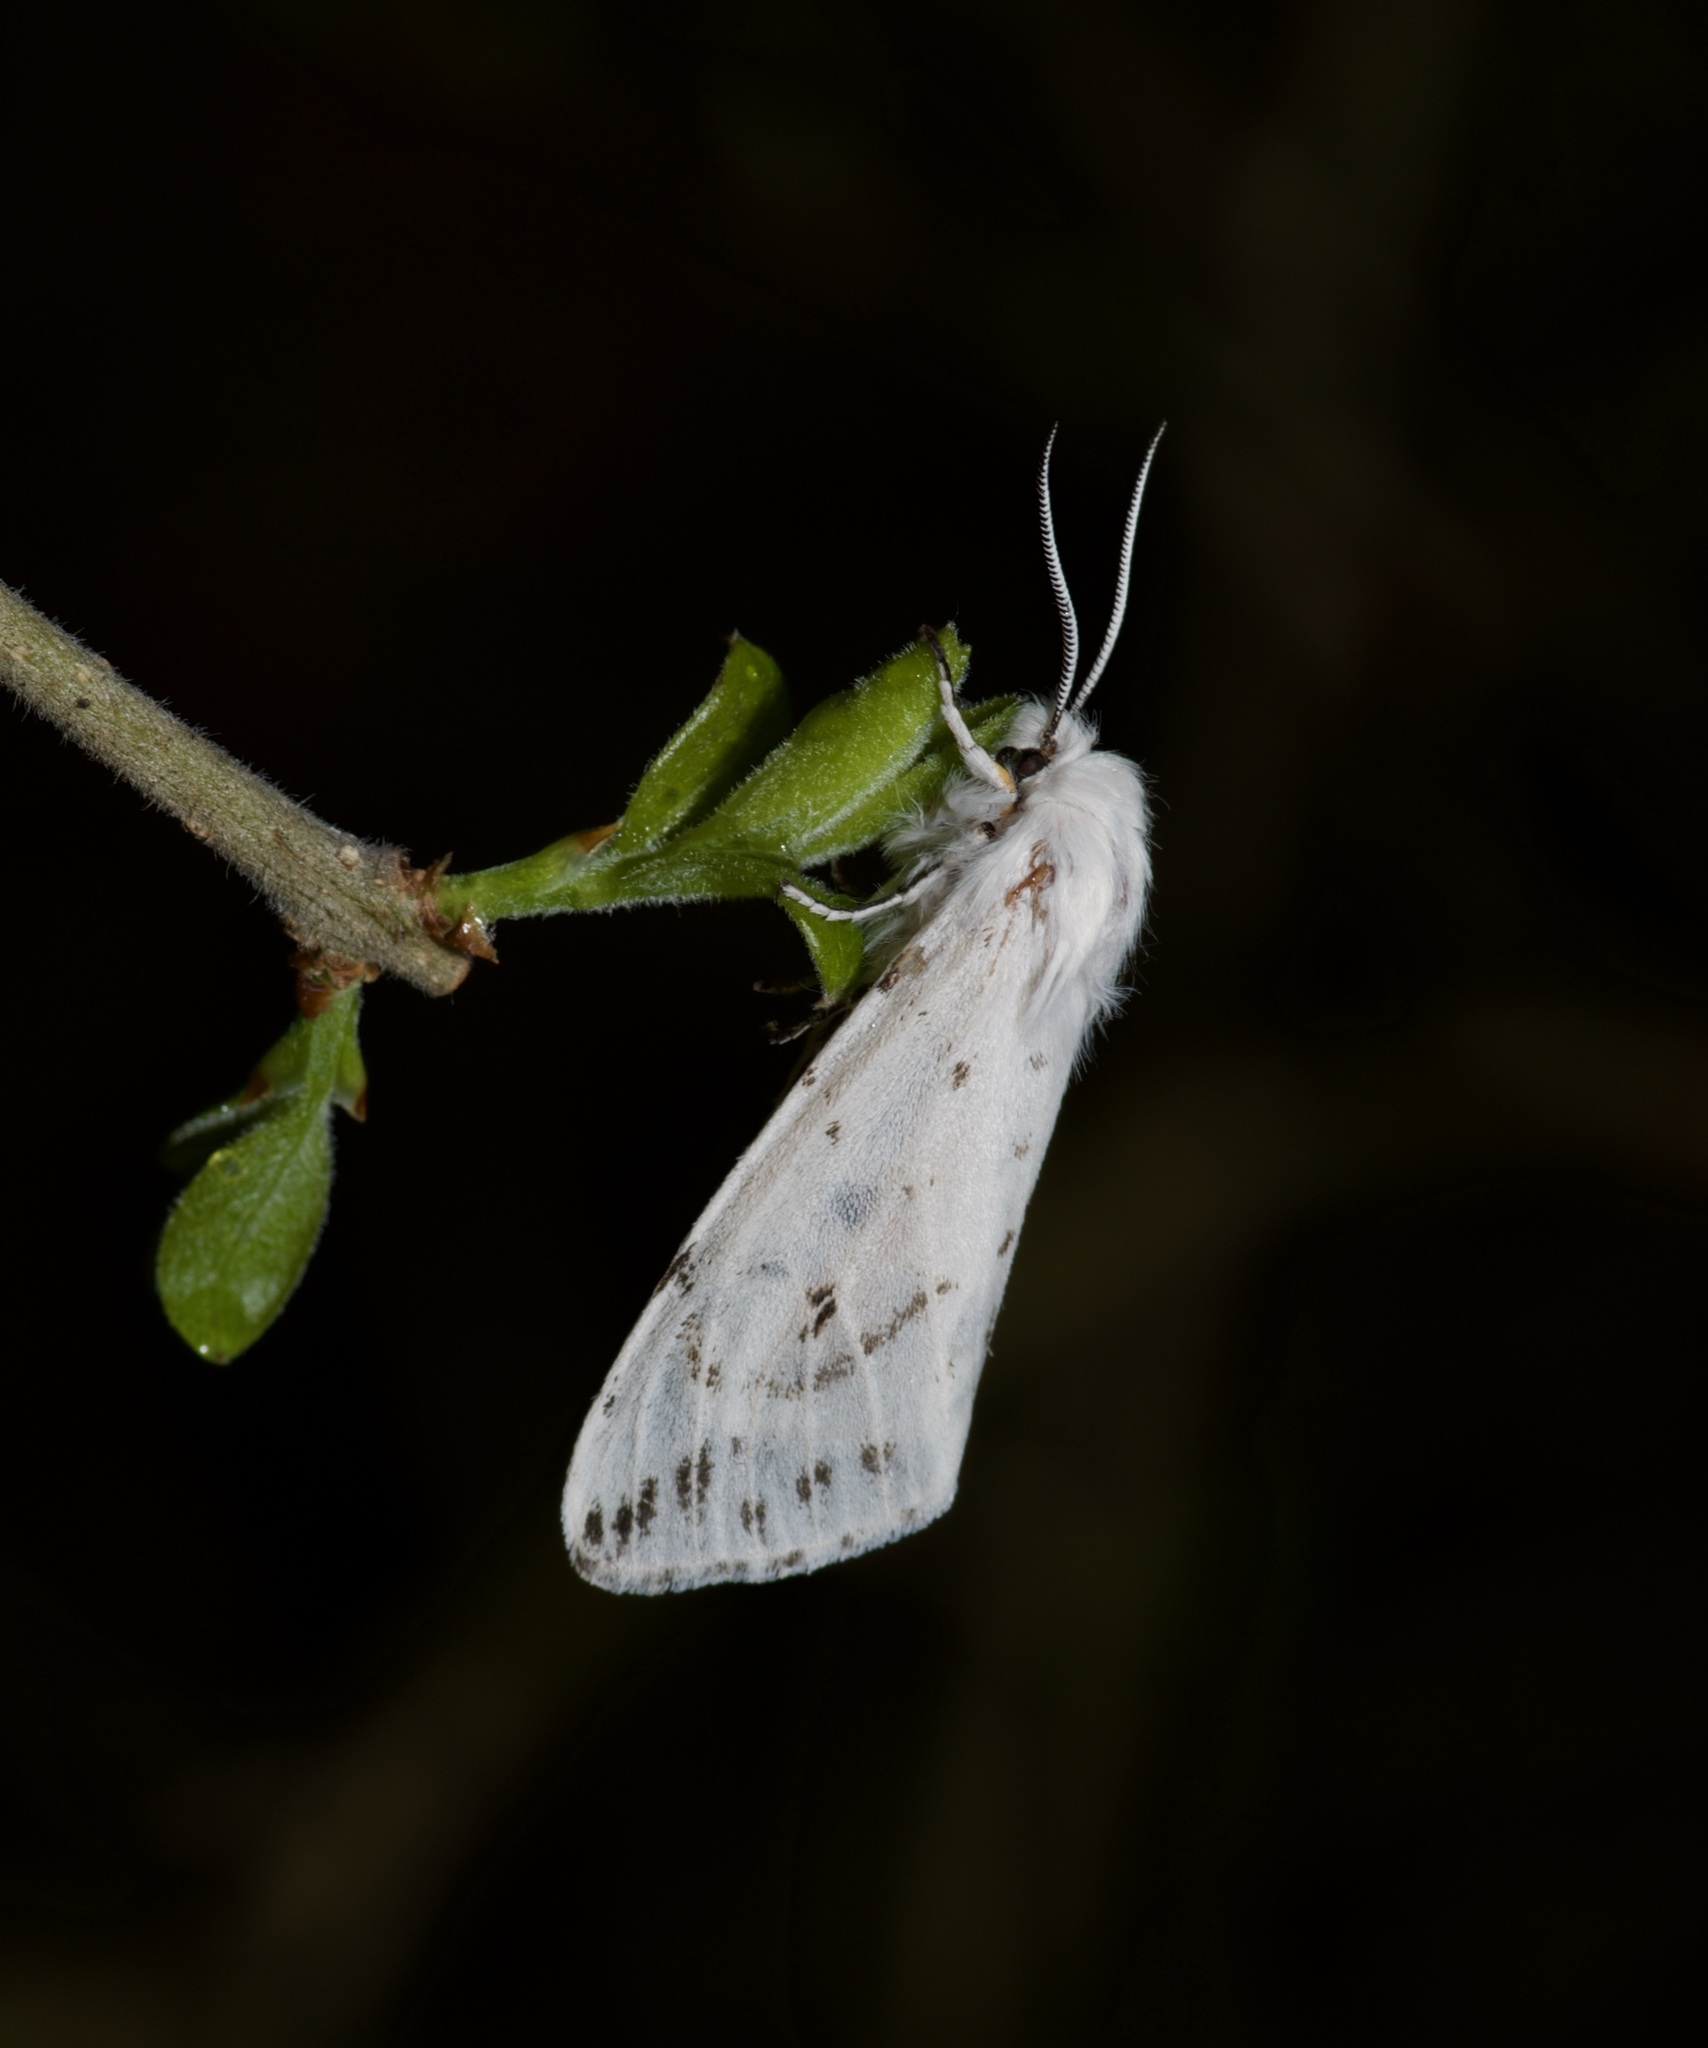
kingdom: Animalia
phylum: Arthropoda
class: Insecta
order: Lepidoptera
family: Erebidae
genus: Spilosoma
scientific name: Spilosoma dubia
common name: Dubious tiger moth
